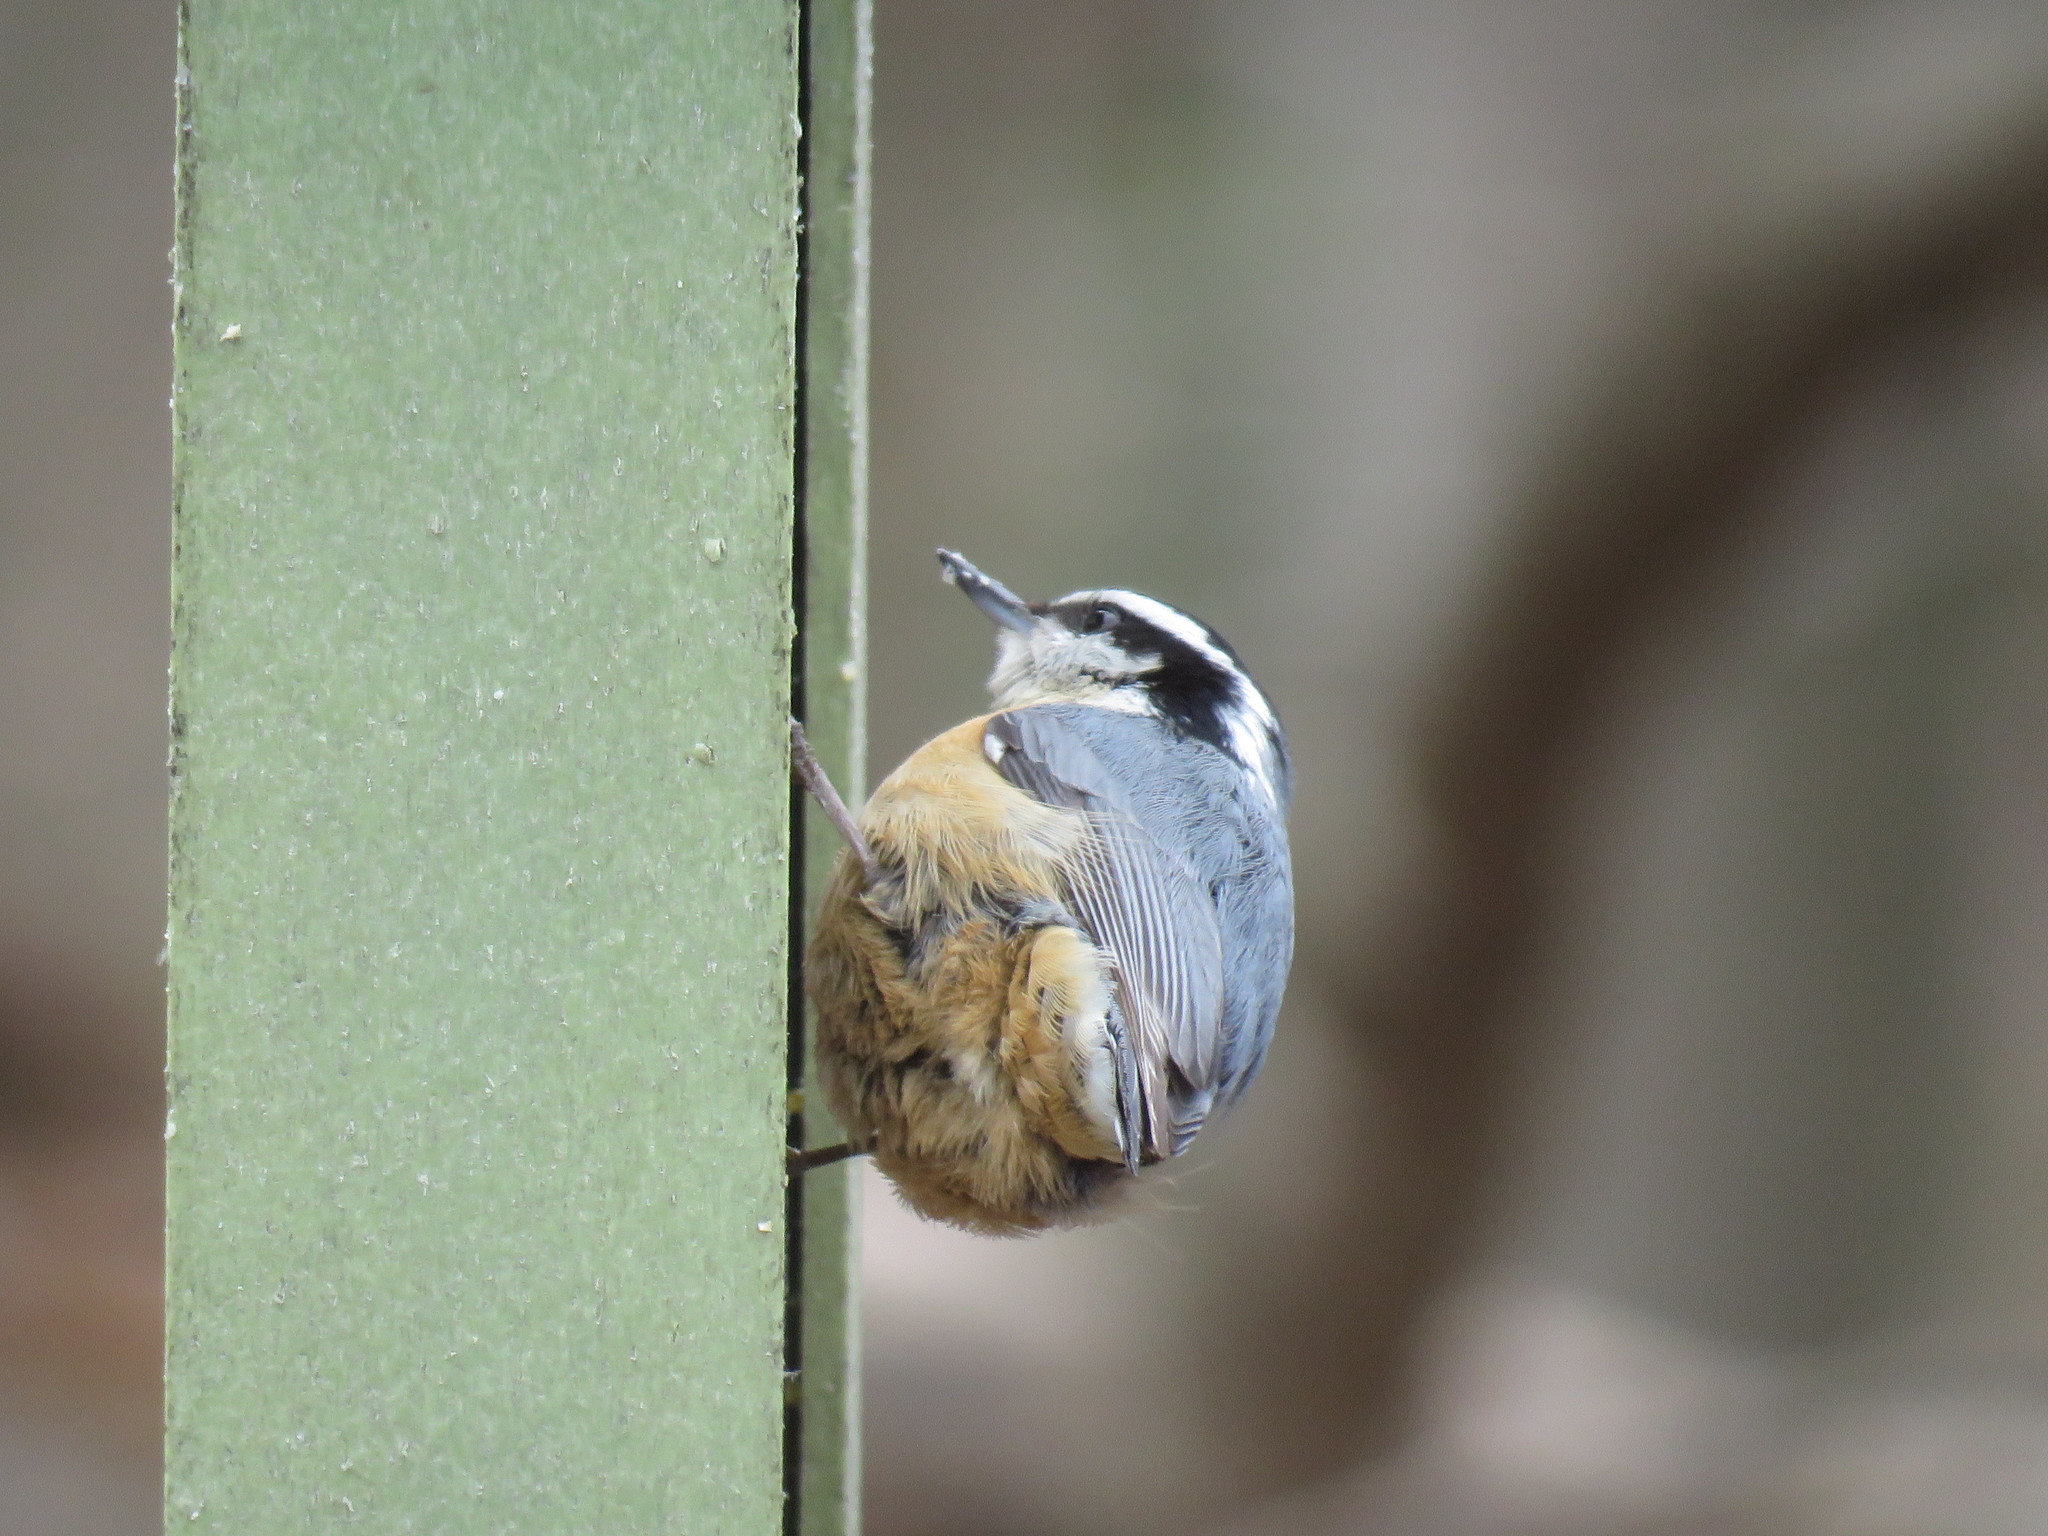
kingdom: Animalia
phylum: Chordata
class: Aves
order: Passeriformes
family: Sittidae
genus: Sitta
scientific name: Sitta canadensis
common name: Red-breasted nuthatch
